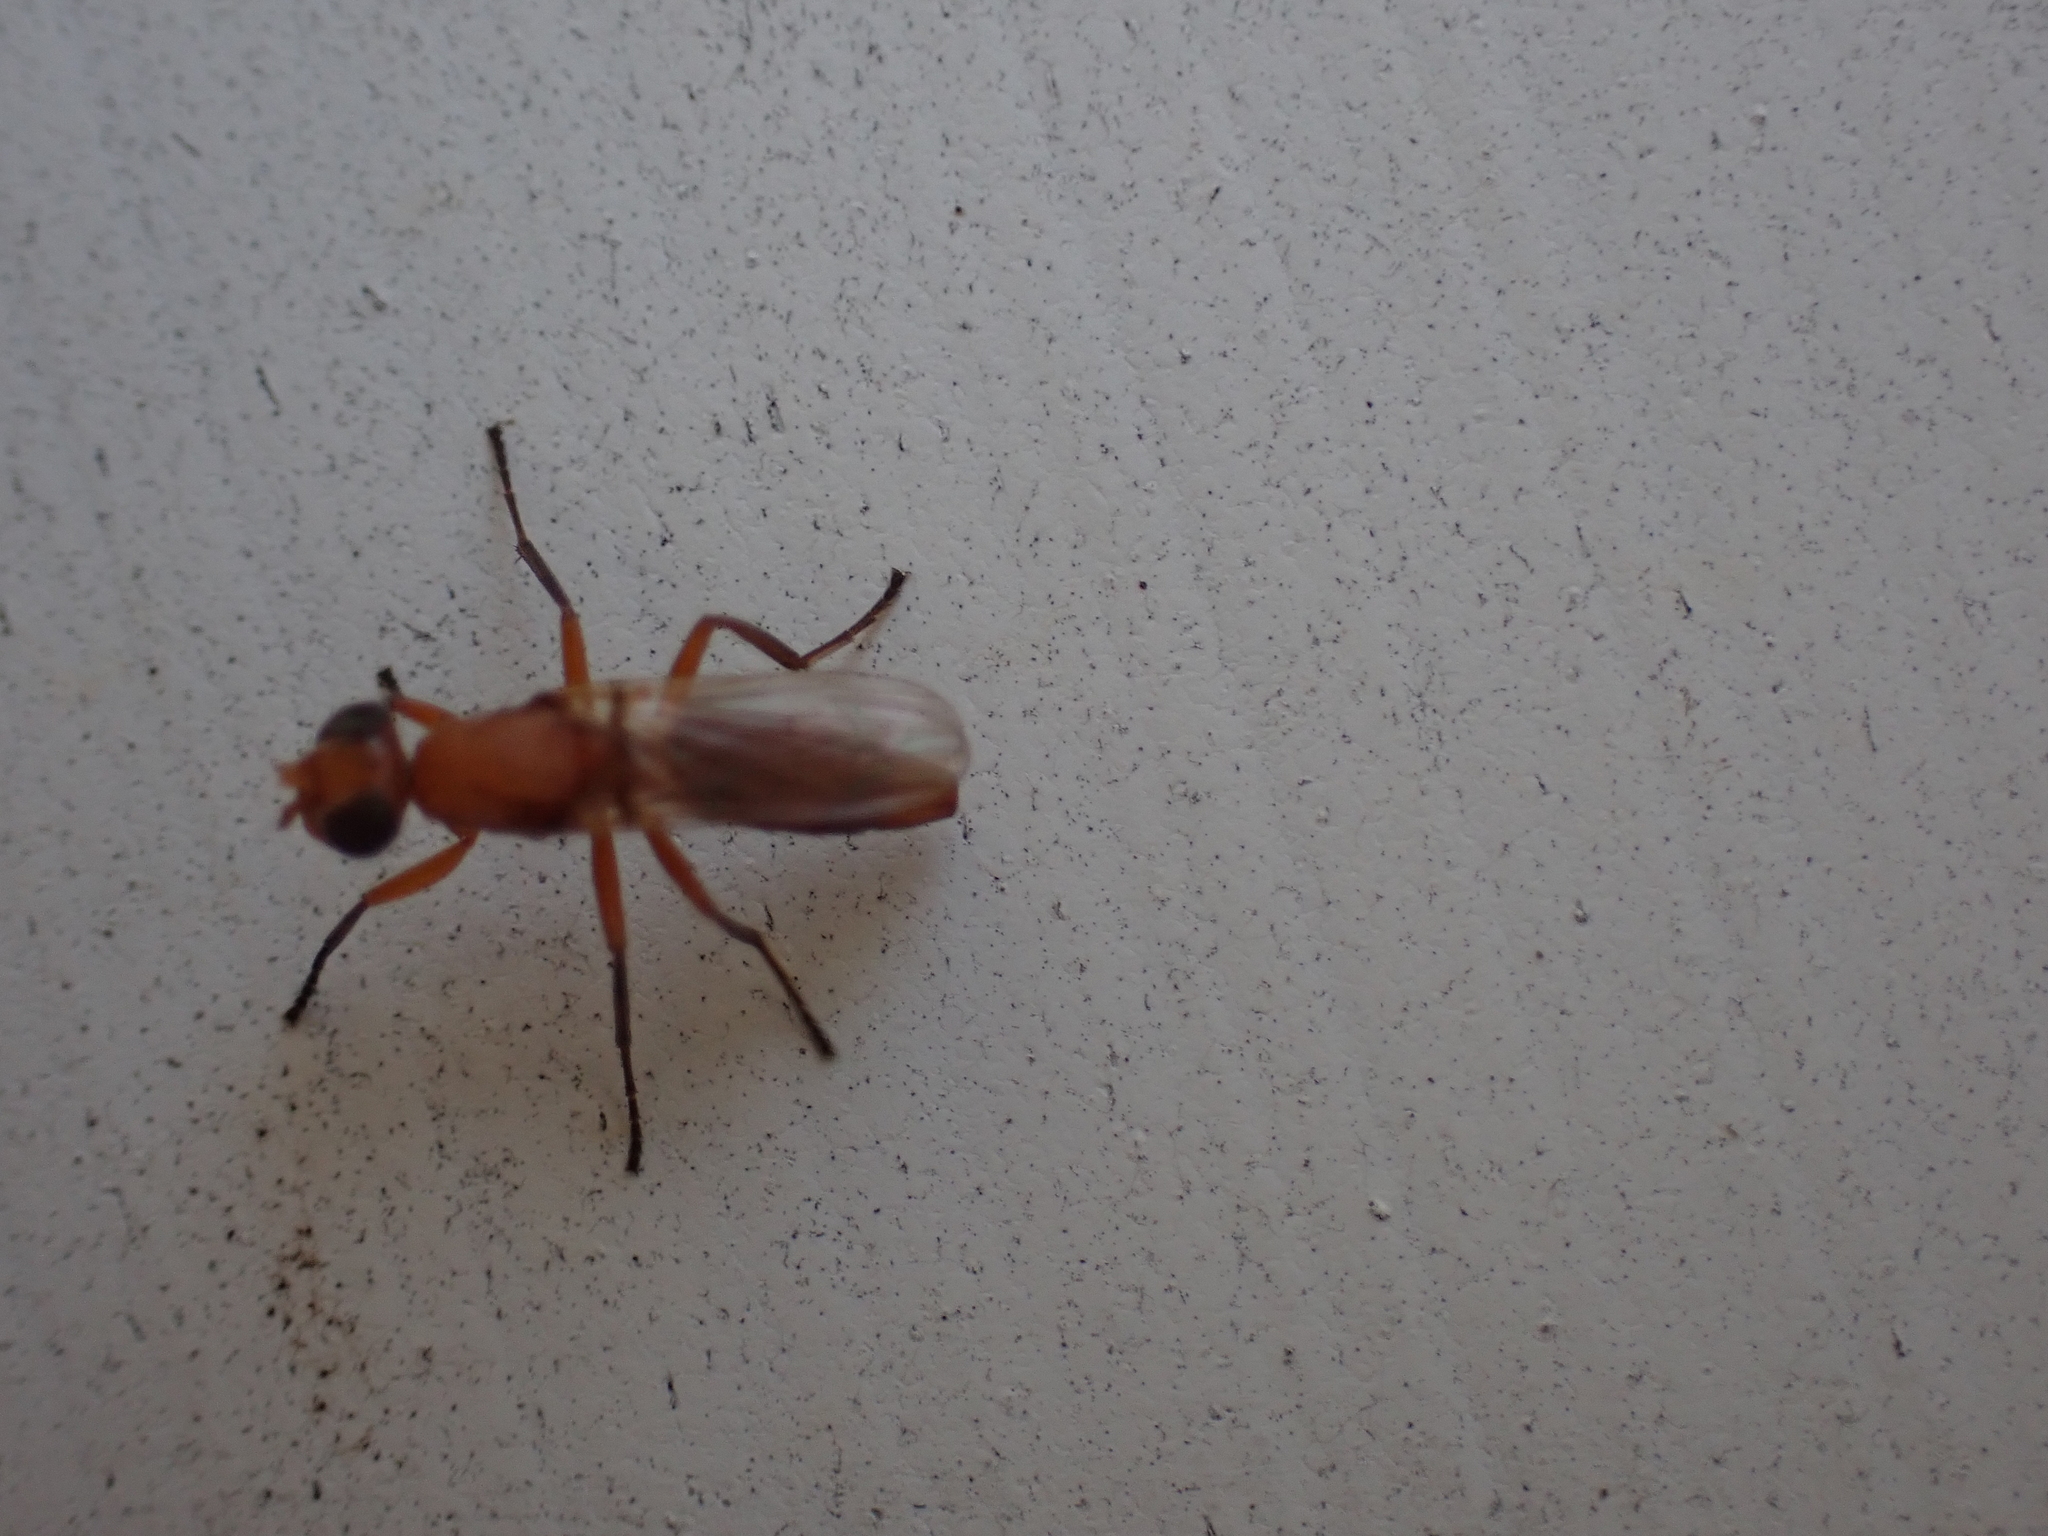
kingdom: Animalia
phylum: Arthropoda
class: Insecta
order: Diptera
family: Ulidiidae
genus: Zacompsia
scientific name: Zacompsia fulva
